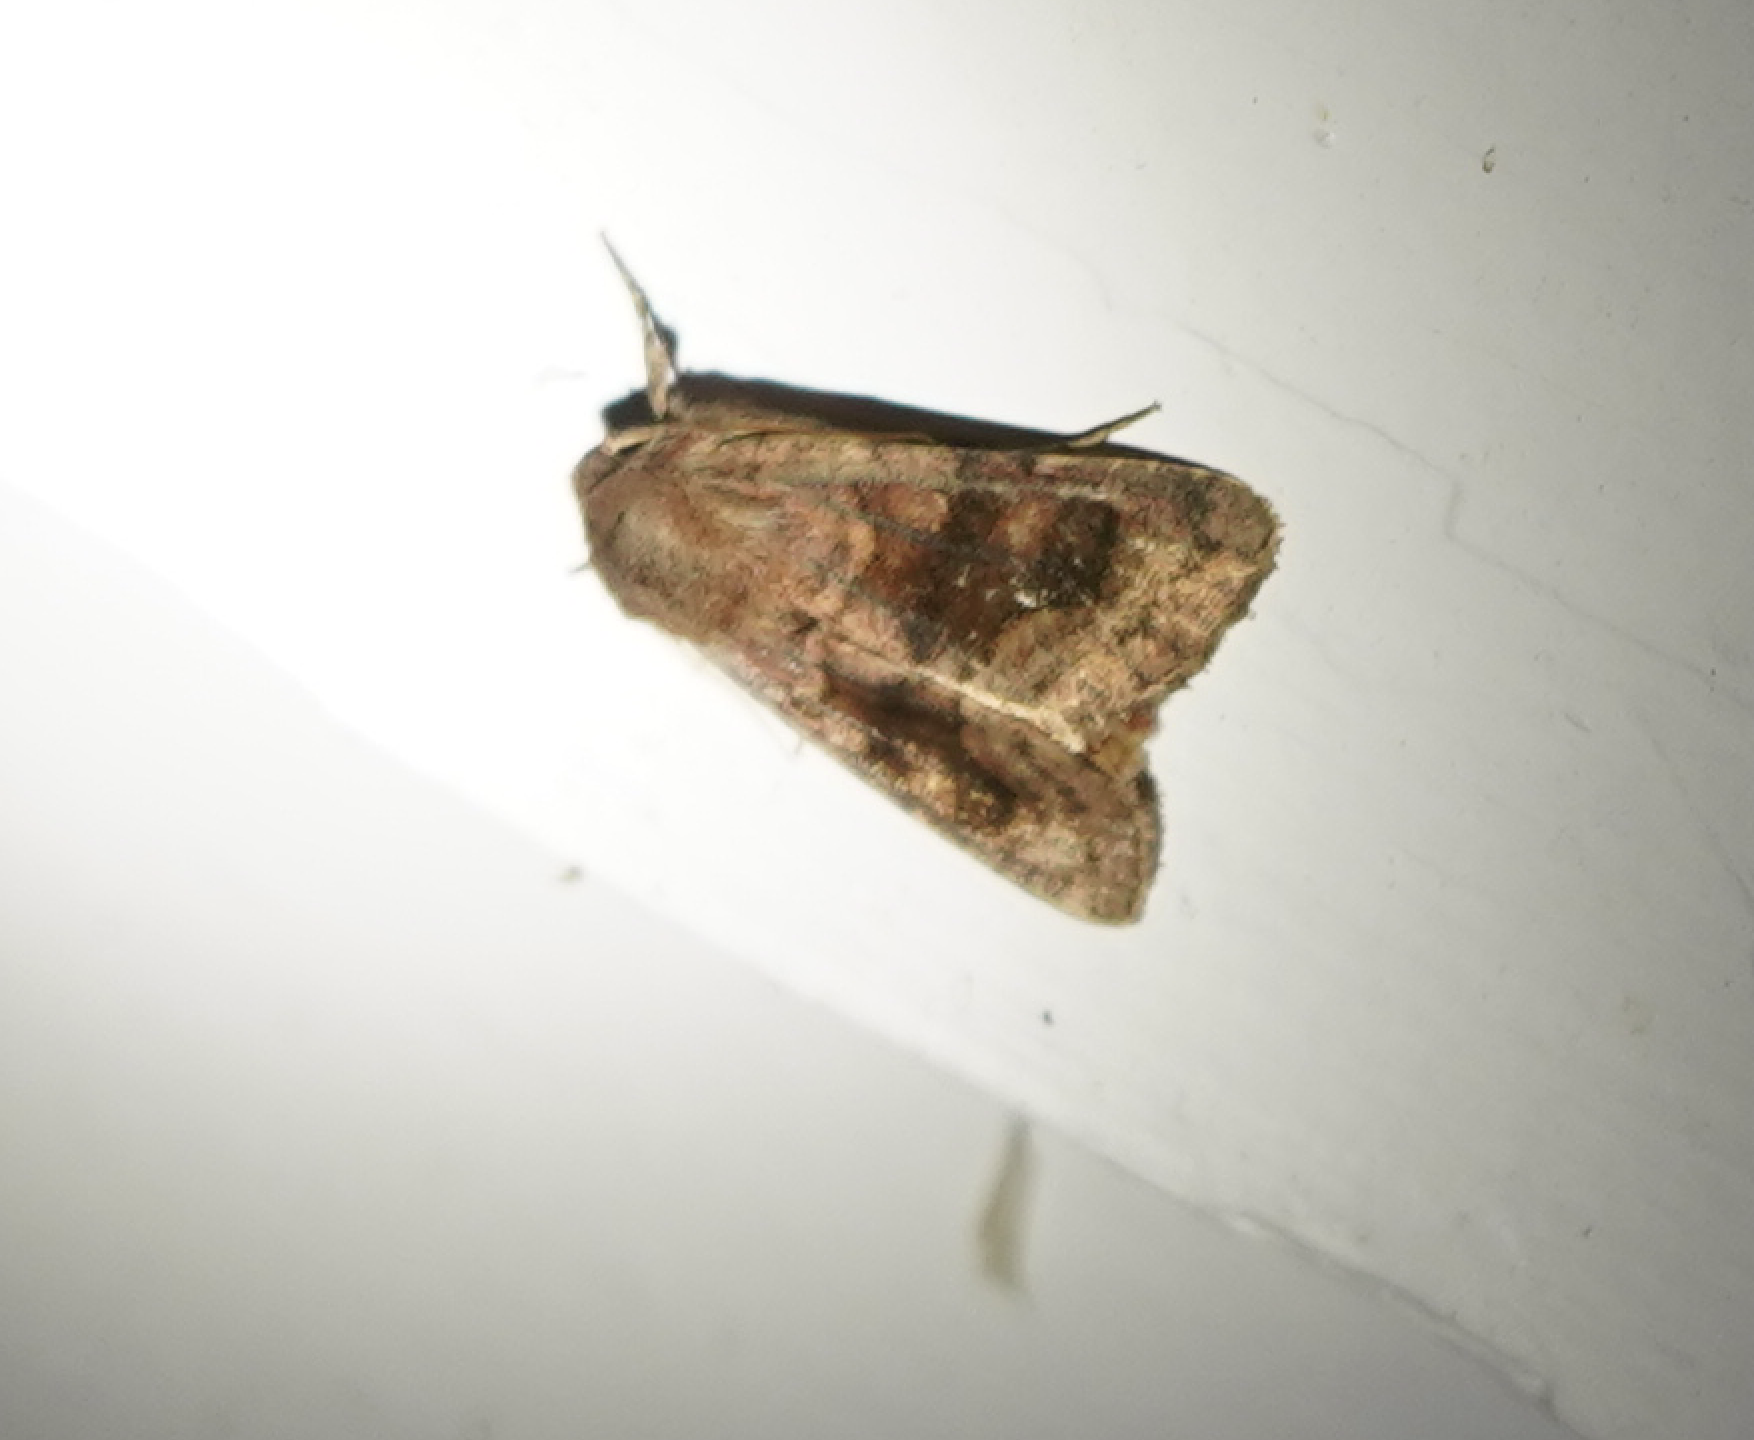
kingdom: Animalia
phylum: Arthropoda
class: Insecta
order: Lepidoptera
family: Noctuidae
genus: Nephelodes
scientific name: Nephelodes minians
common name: Bronzed cutworm
